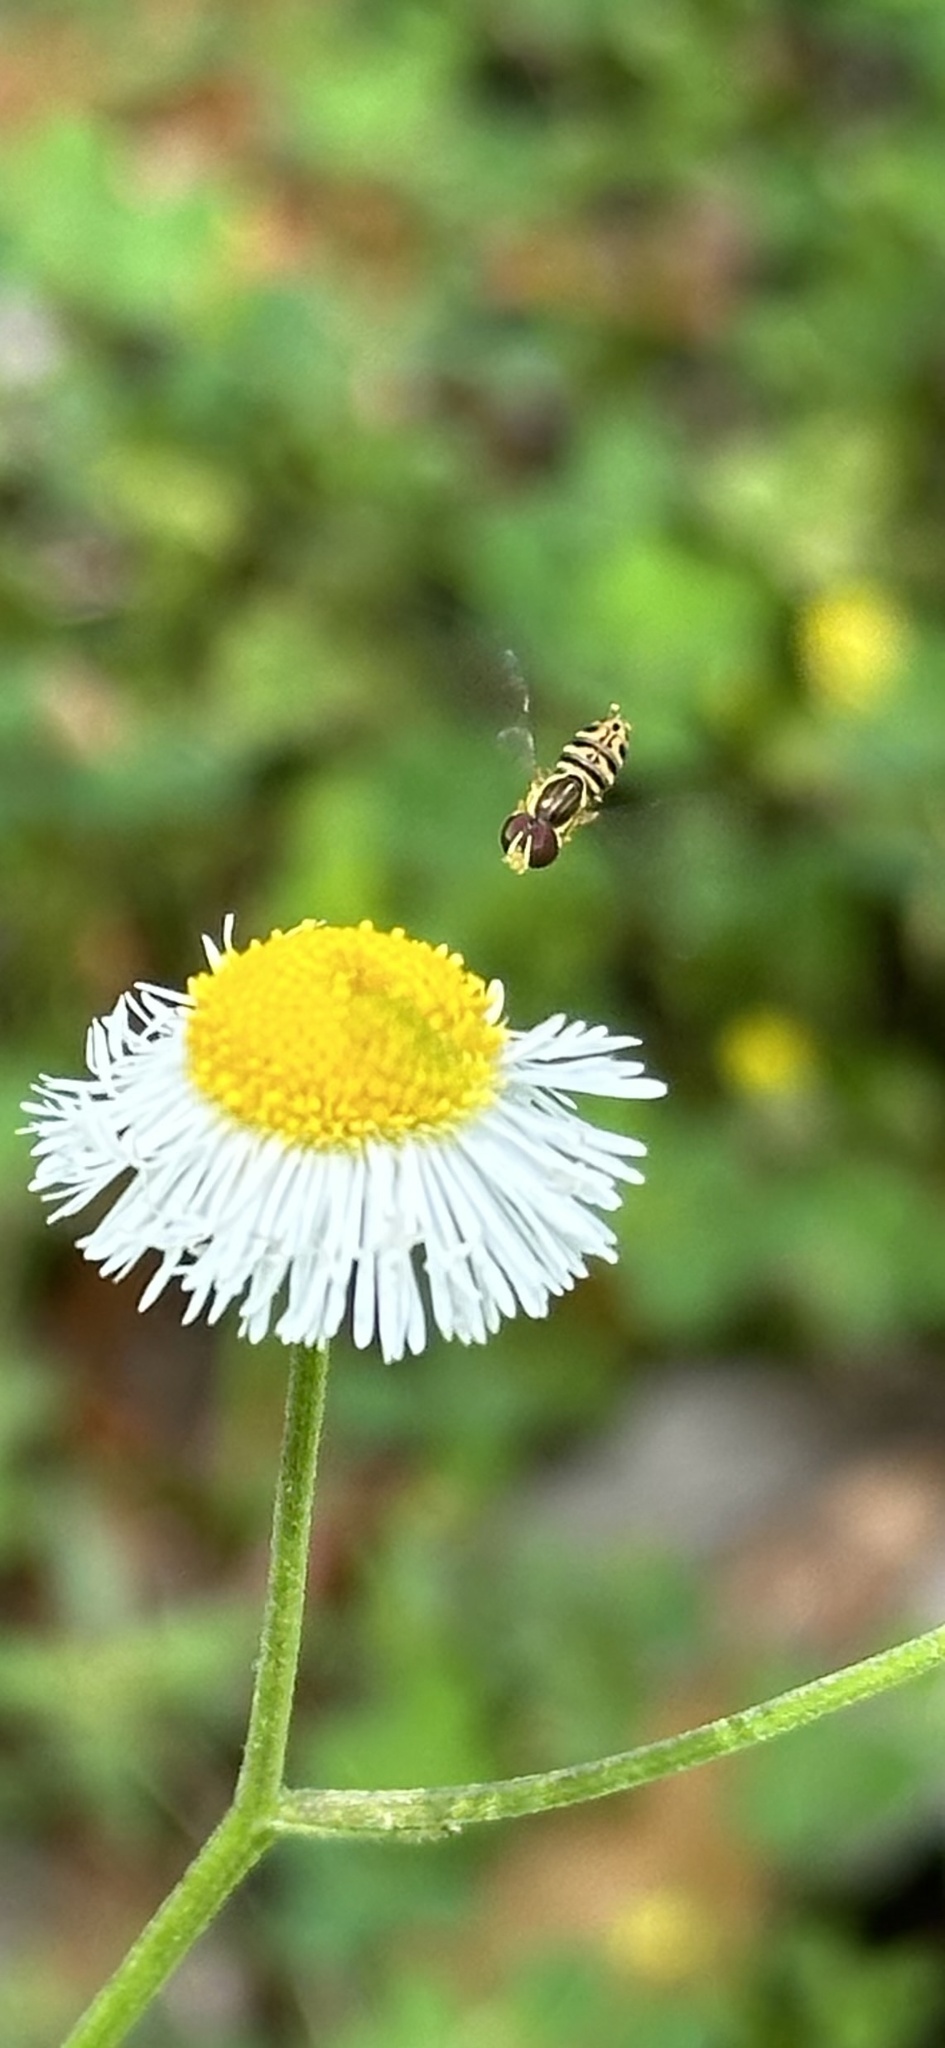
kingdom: Animalia
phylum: Arthropoda
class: Insecta
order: Diptera
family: Syrphidae
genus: Toxomerus
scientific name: Toxomerus geminatus
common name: Eastern calligrapher
